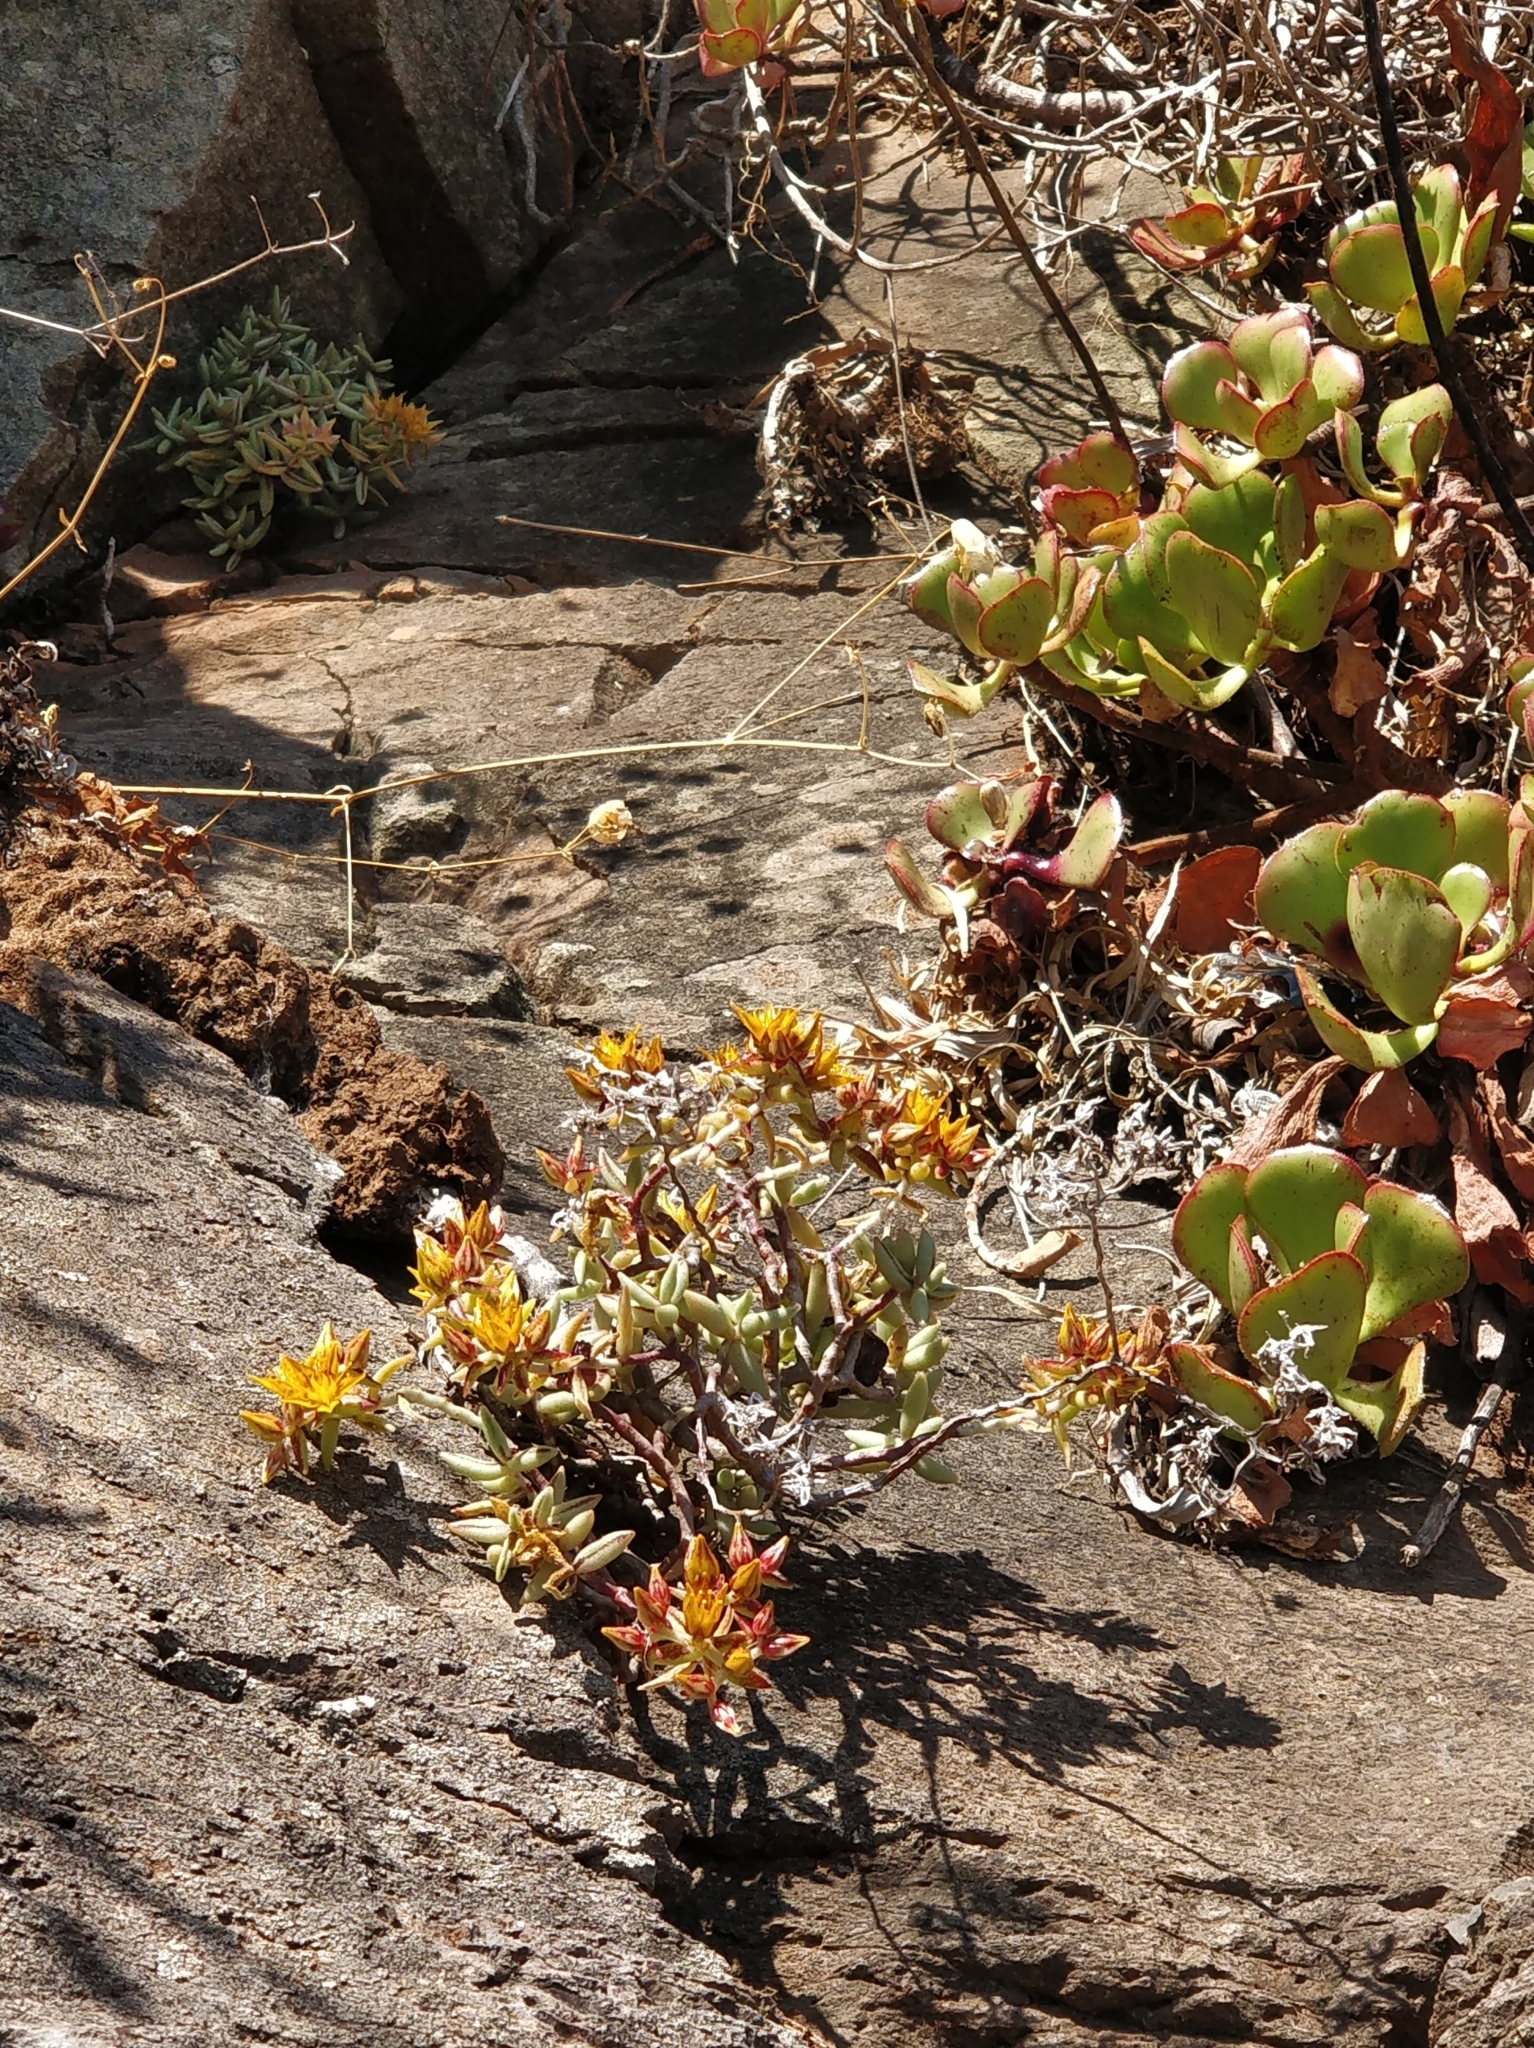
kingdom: Plantae
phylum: Tracheophyta
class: Magnoliopsida
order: Saxifragales
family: Crassulaceae
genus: Sedum
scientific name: Sedum fusiforme
